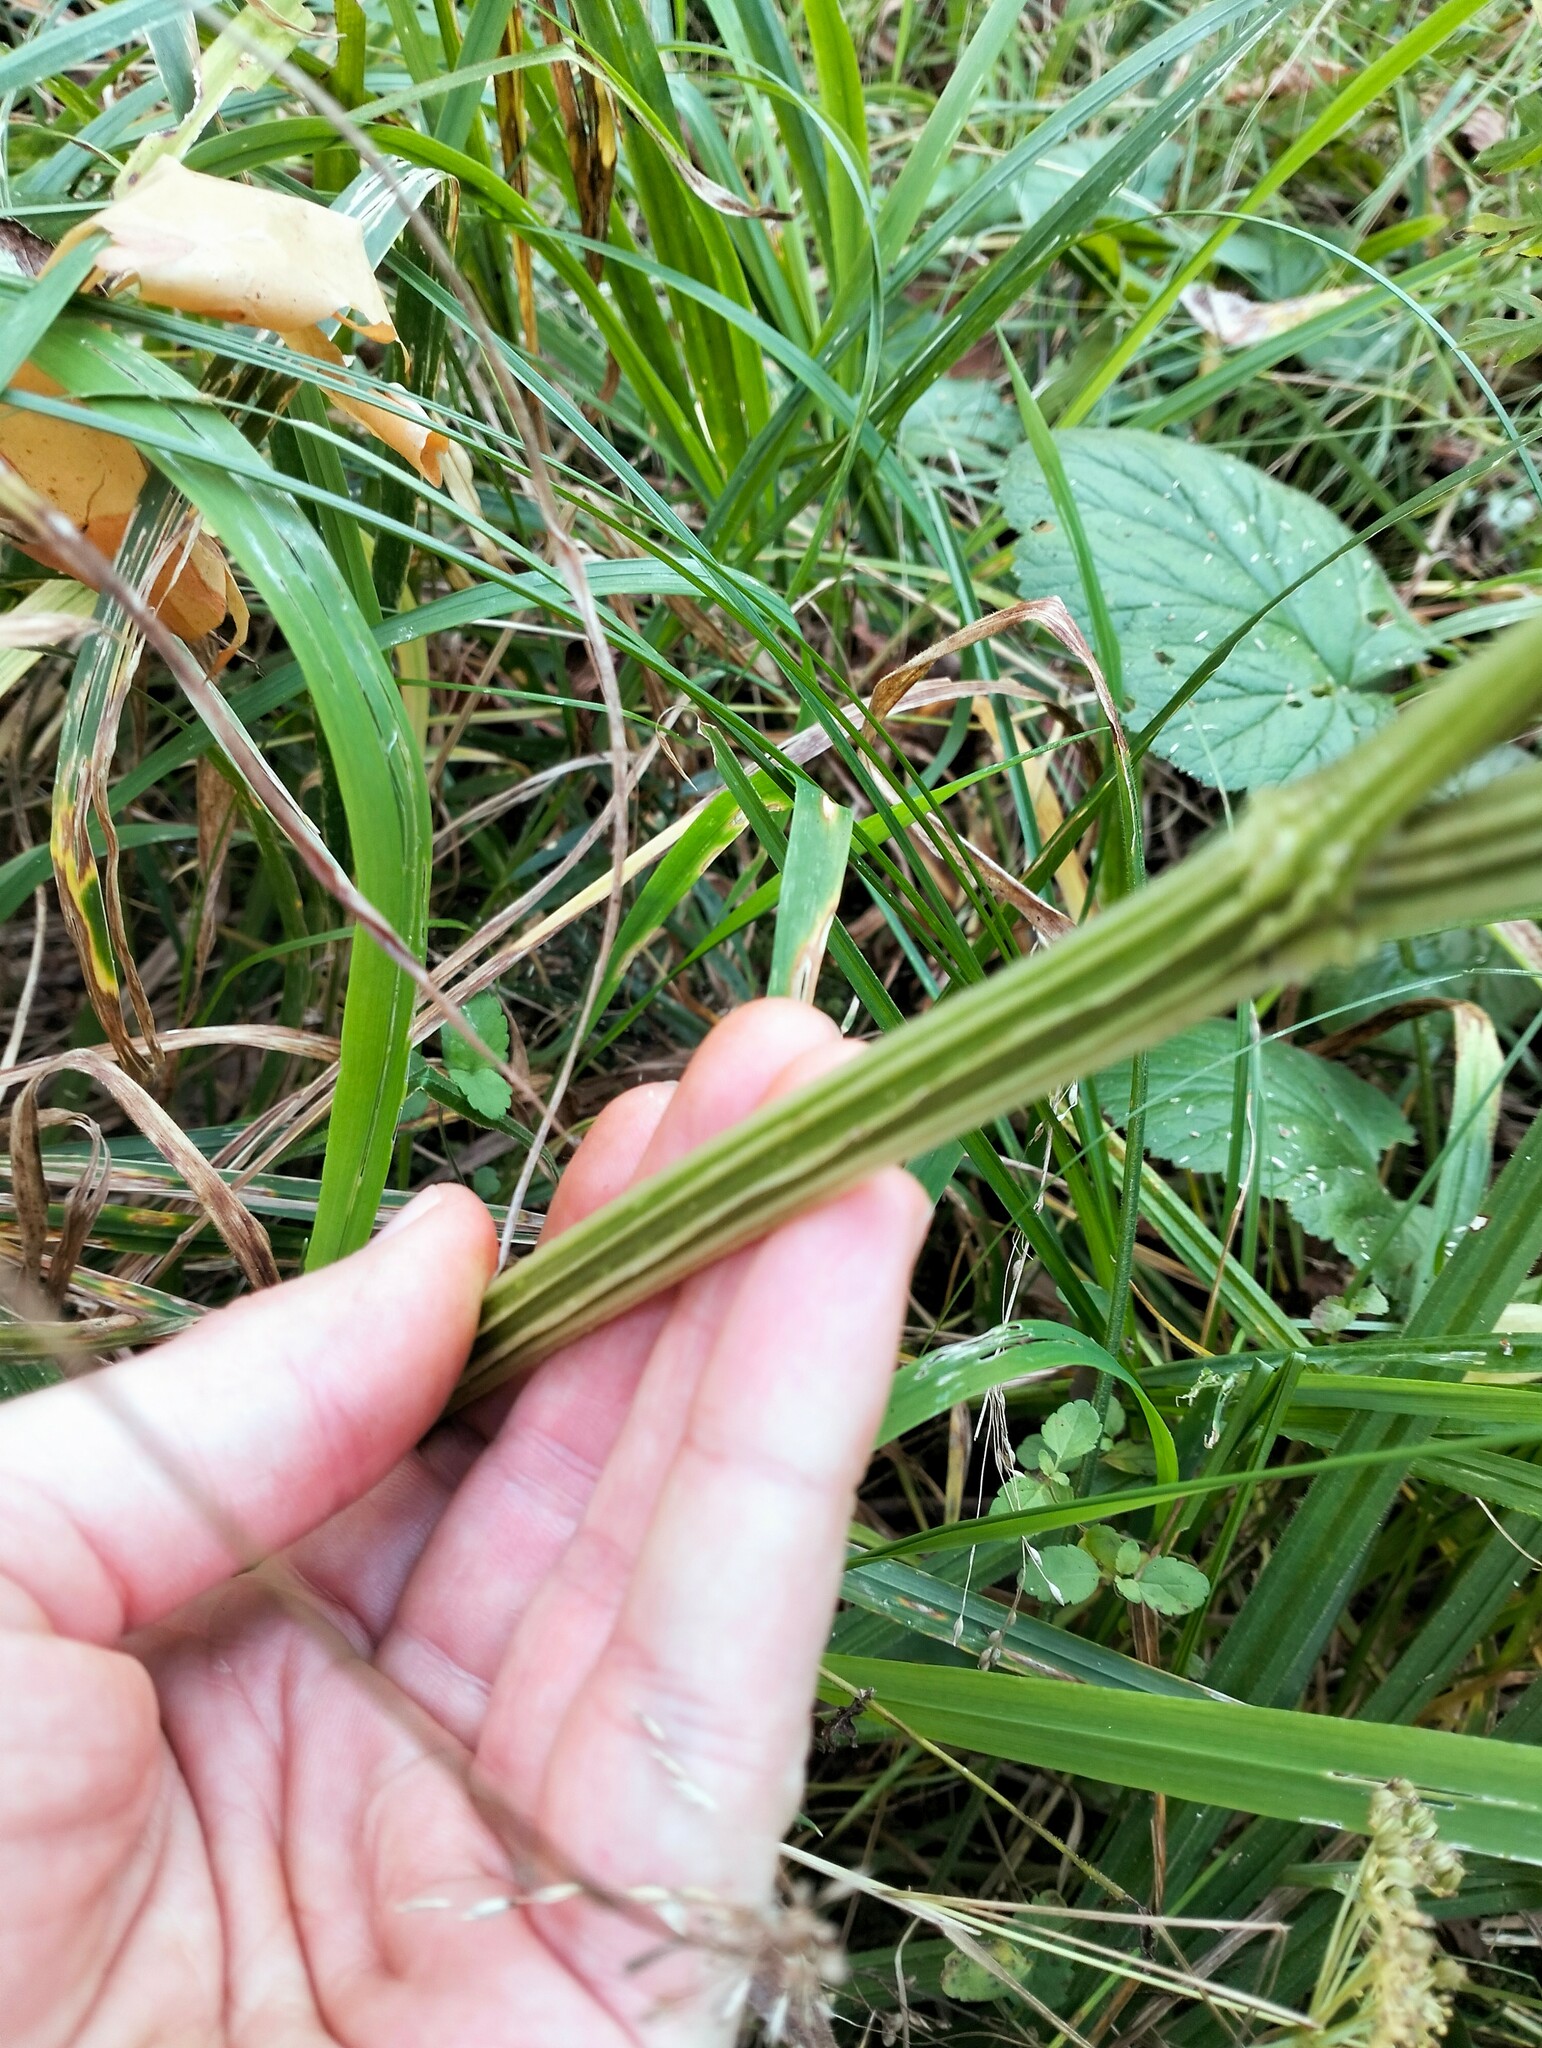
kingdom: Plantae
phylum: Tracheophyta
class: Magnoliopsida
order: Apiales
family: Apiaceae
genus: Selinum
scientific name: Selinum carvifolia
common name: Cambridge milk-parsley
